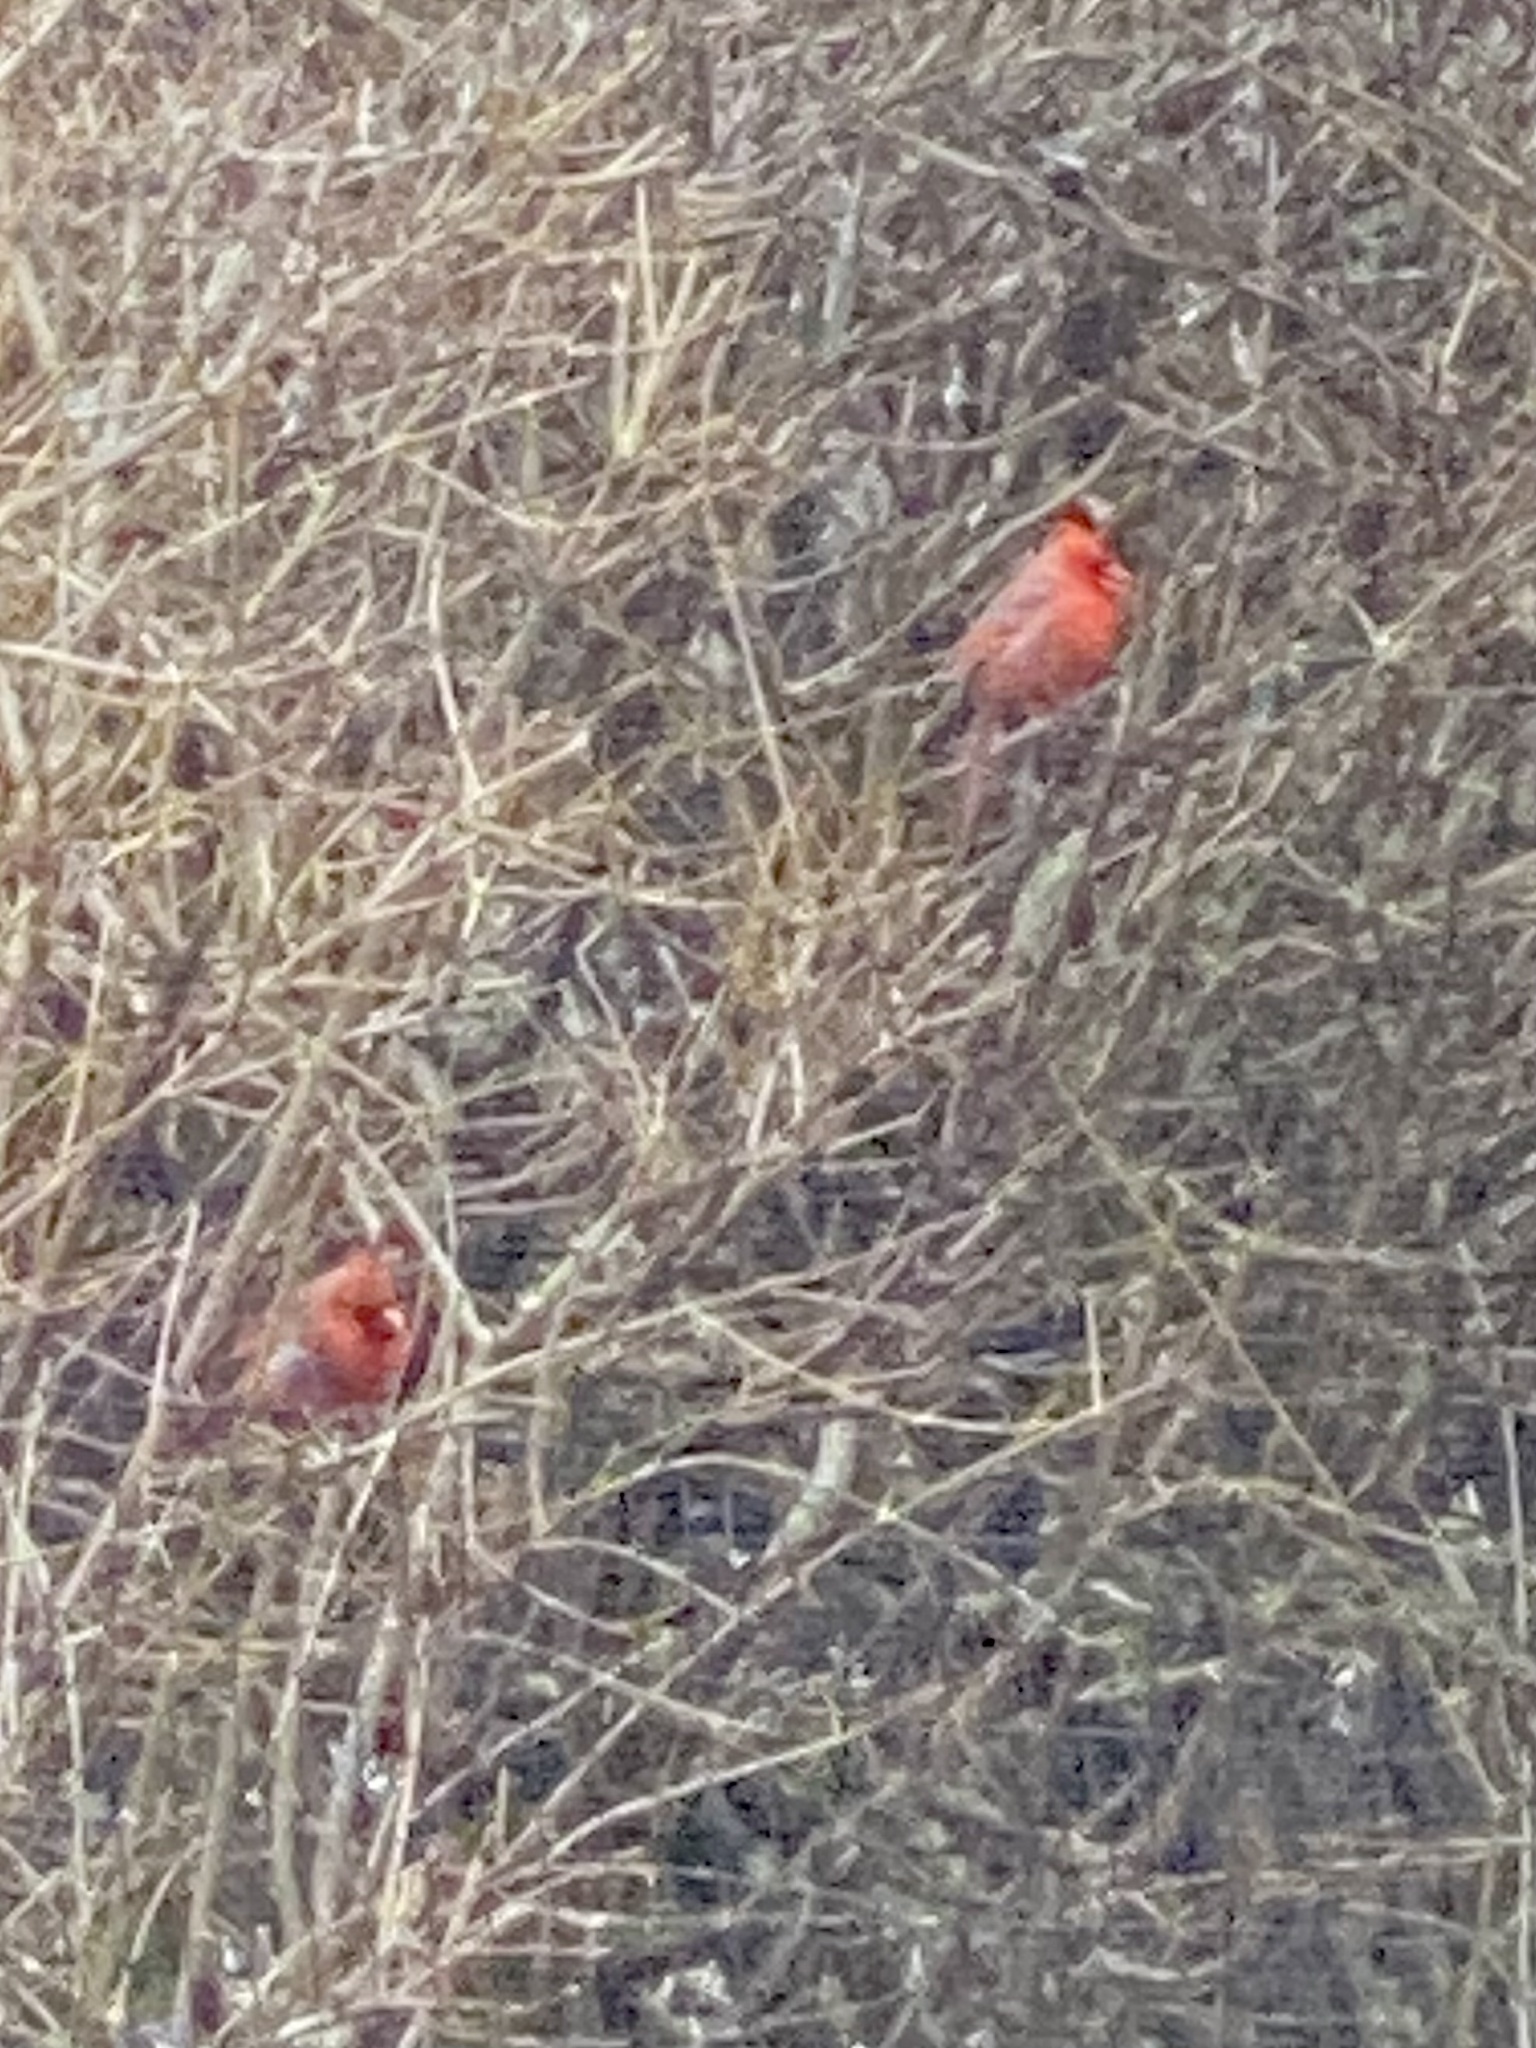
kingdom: Animalia
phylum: Chordata
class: Aves
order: Passeriformes
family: Cardinalidae
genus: Cardinalis
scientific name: Cardinalis cardinalis
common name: Northern cardinal
